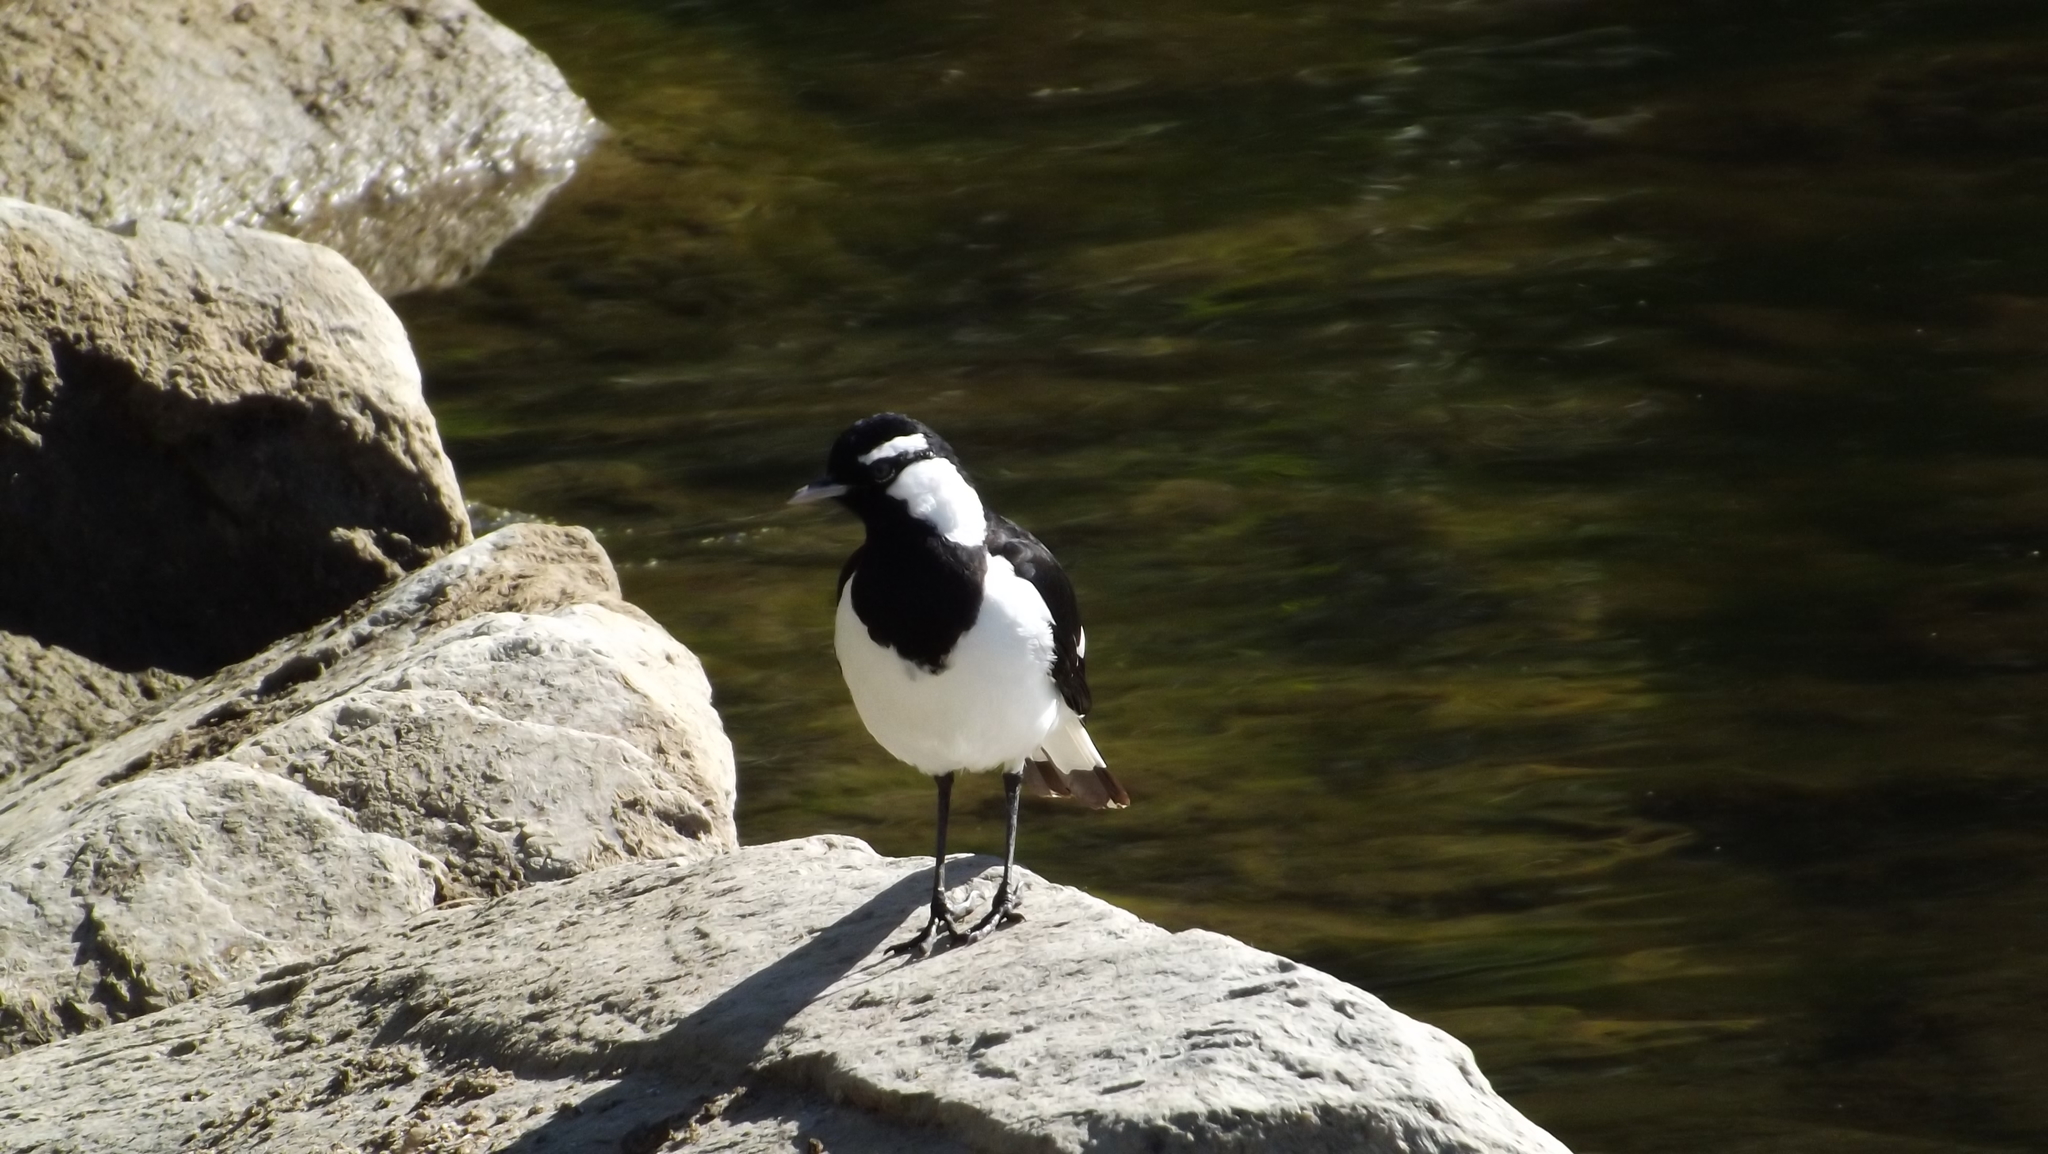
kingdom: Animalia
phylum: Chordata
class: Aves
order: Passeriformes
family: Monarchidae
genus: Grallina
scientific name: Grallina cyanoleuca
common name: Magpie-lark
